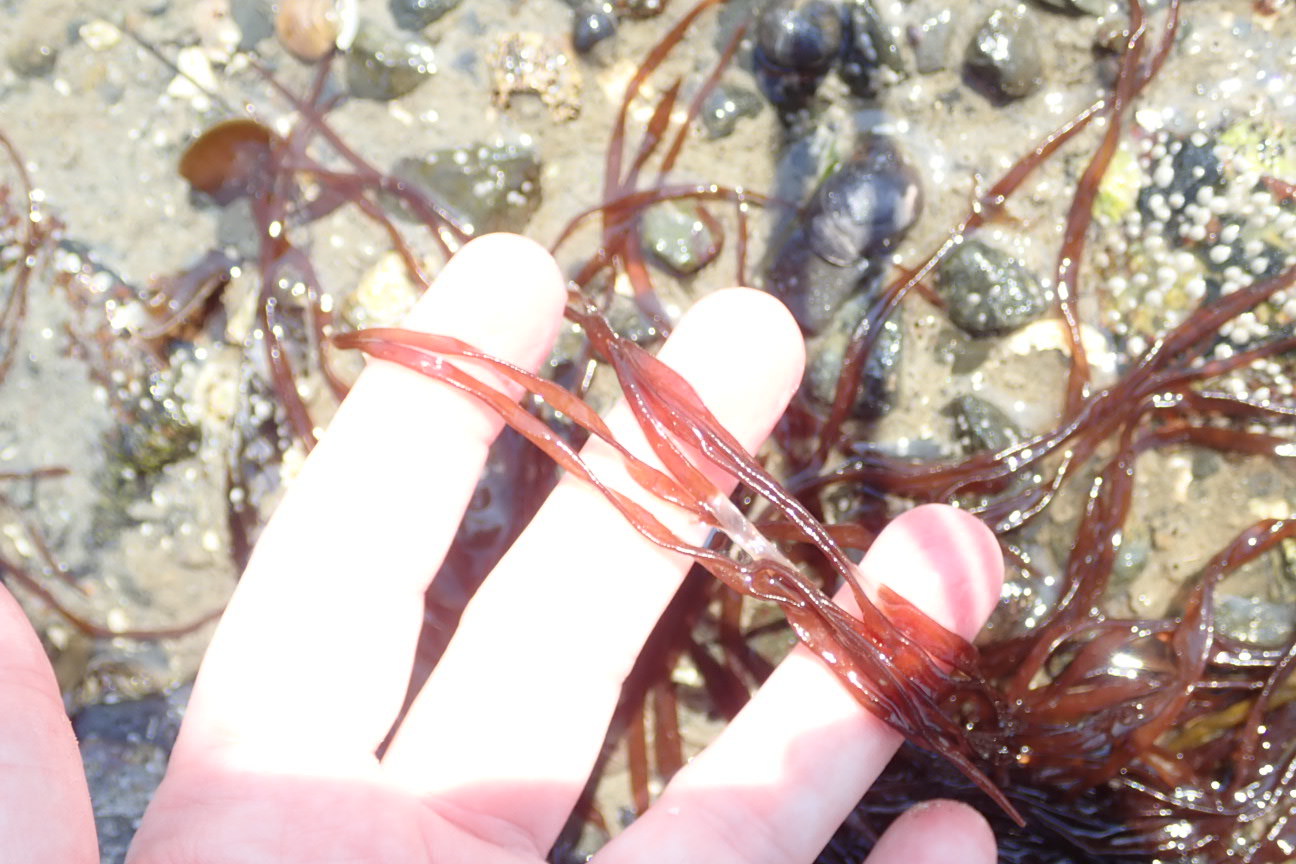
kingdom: Chromista
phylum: Ochrophyta
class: Phaeophyceae
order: Scytosiphonales
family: Scytosiphonaceae
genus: Scytosiphon
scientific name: Scytosiphon lomentaria
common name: Beanweed
